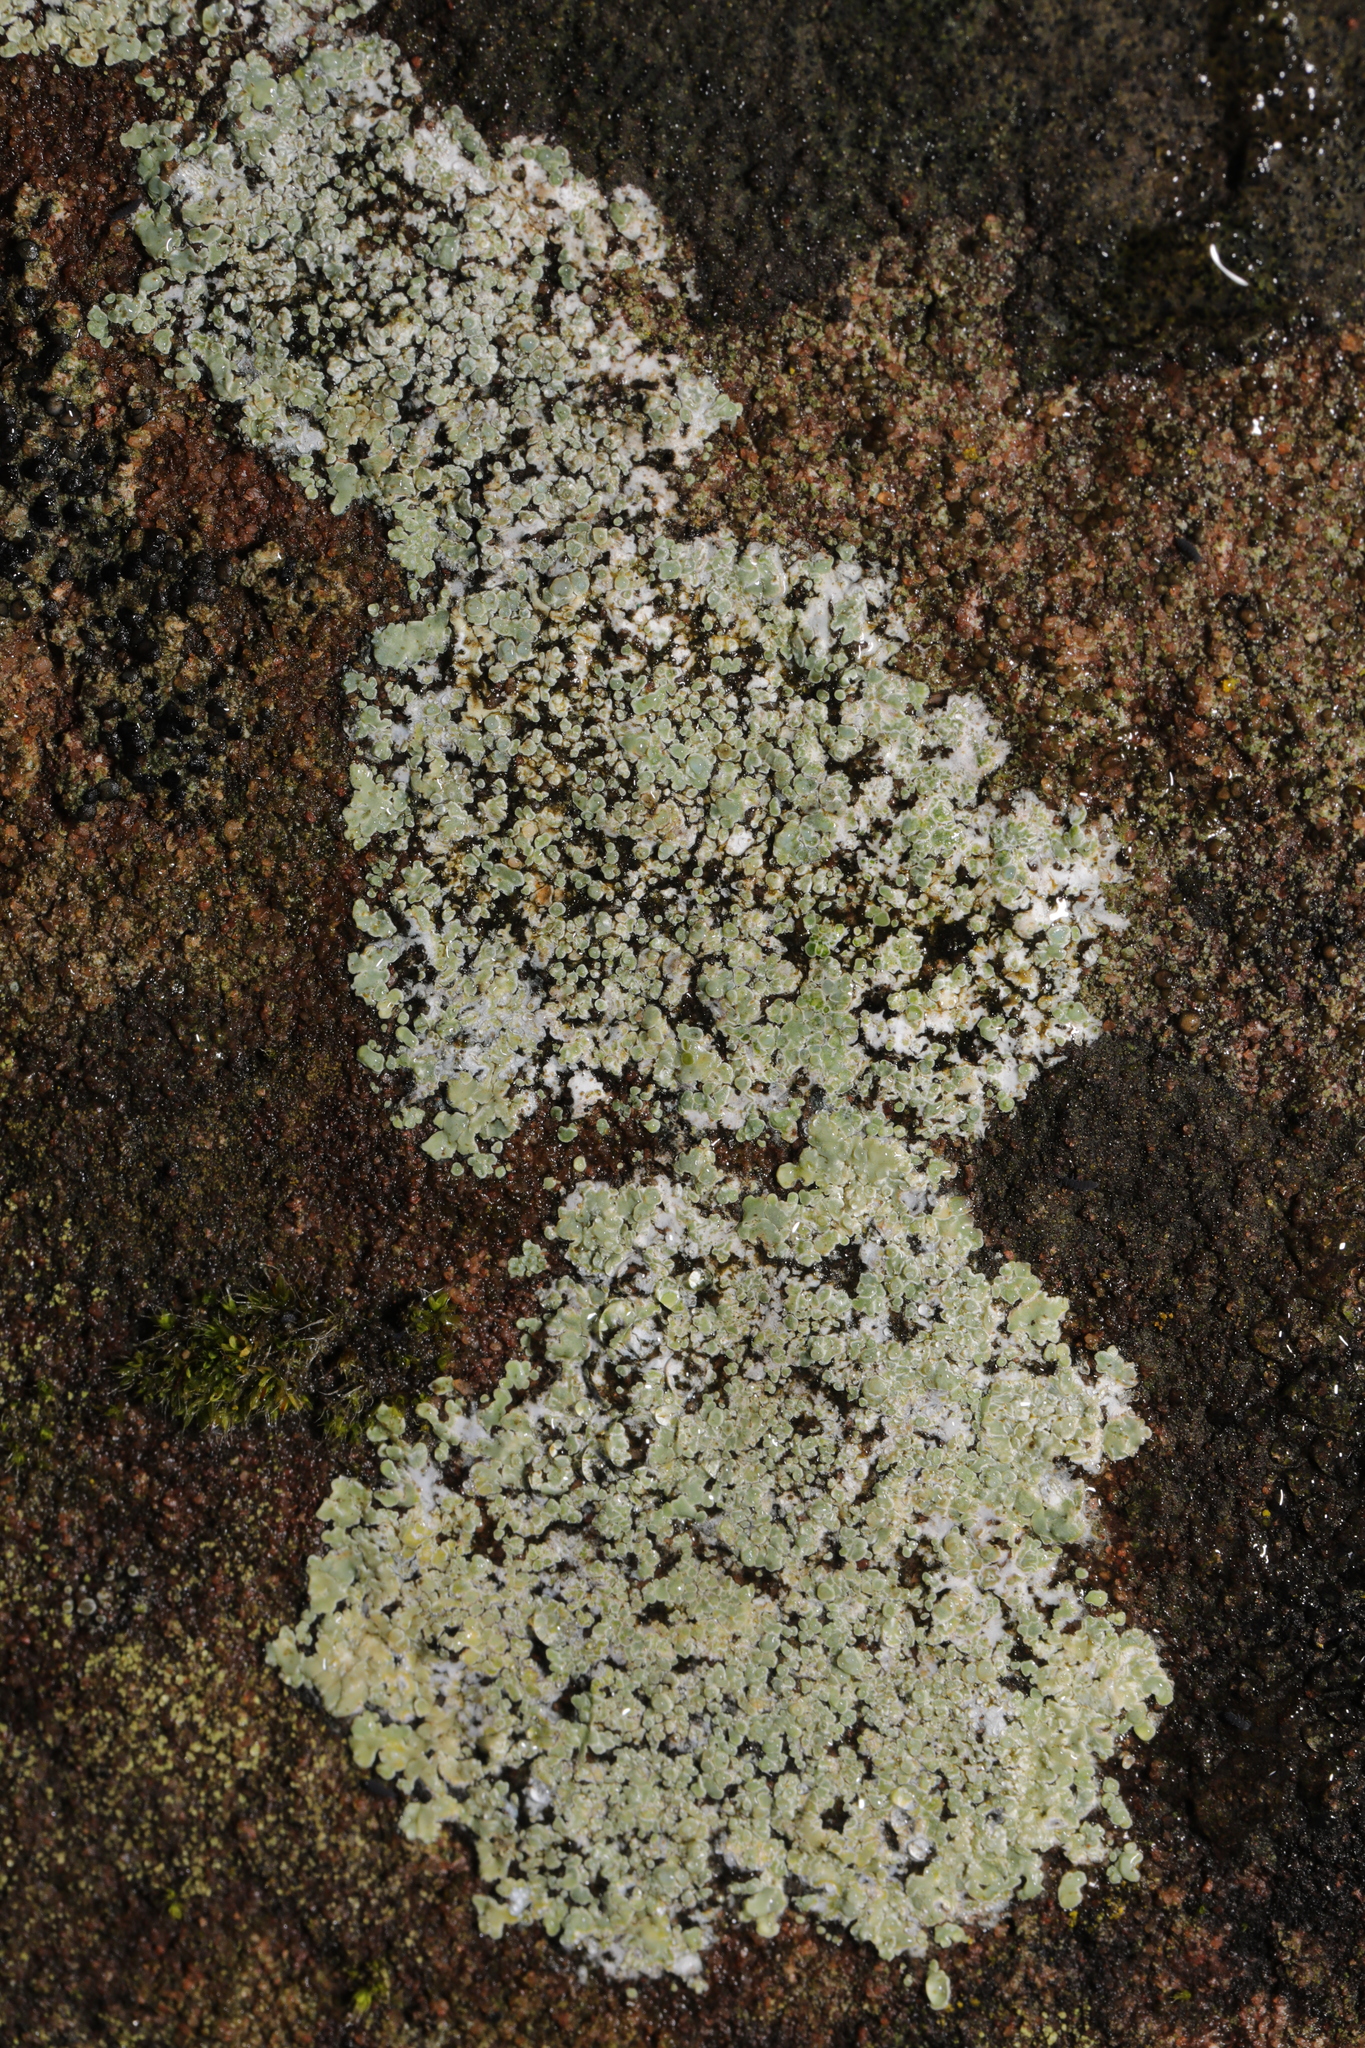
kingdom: Fungi
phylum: Ascomycota
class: Lecanoromycetes
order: Lecanorales
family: Lecanoraceae
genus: Protoparmeliopsis
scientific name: Protoparmeliopsis muralis
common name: Stonewall rim lichen
